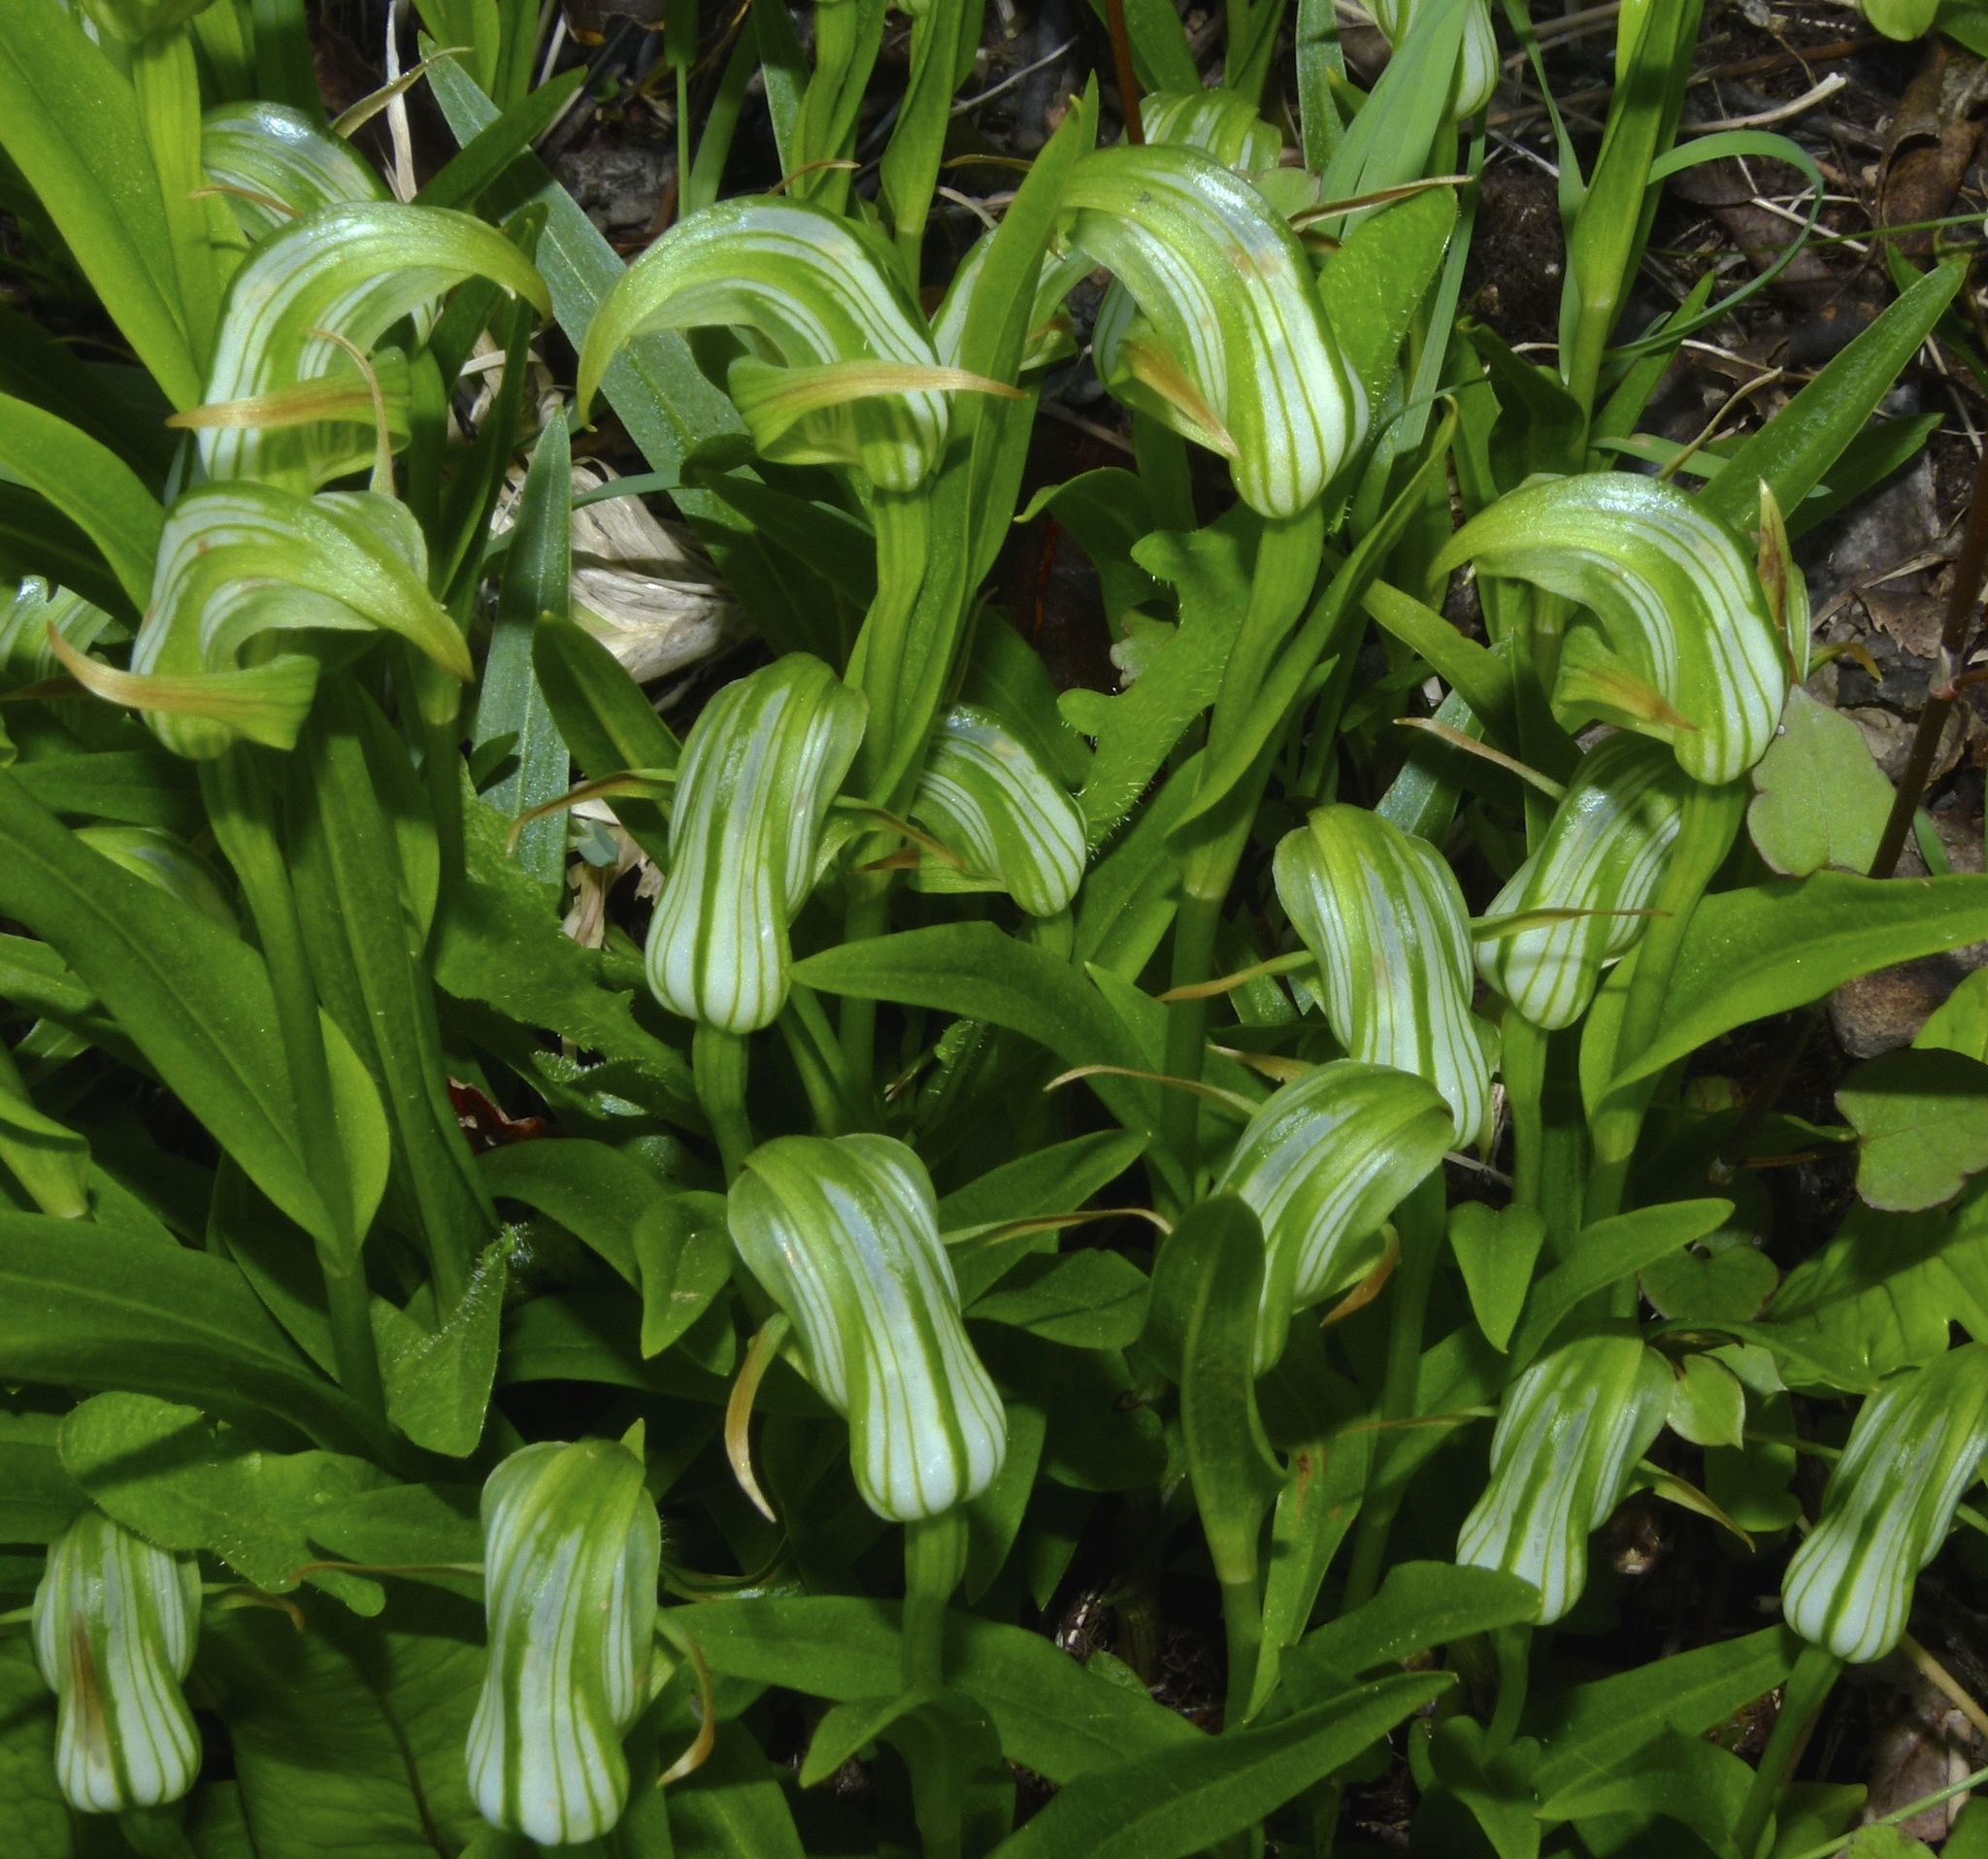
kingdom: Plantae
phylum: Tracheophyta
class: Liliopsida
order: Asparagales
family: Orchidaceae
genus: Pterostylis
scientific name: Pterostylis areolata
